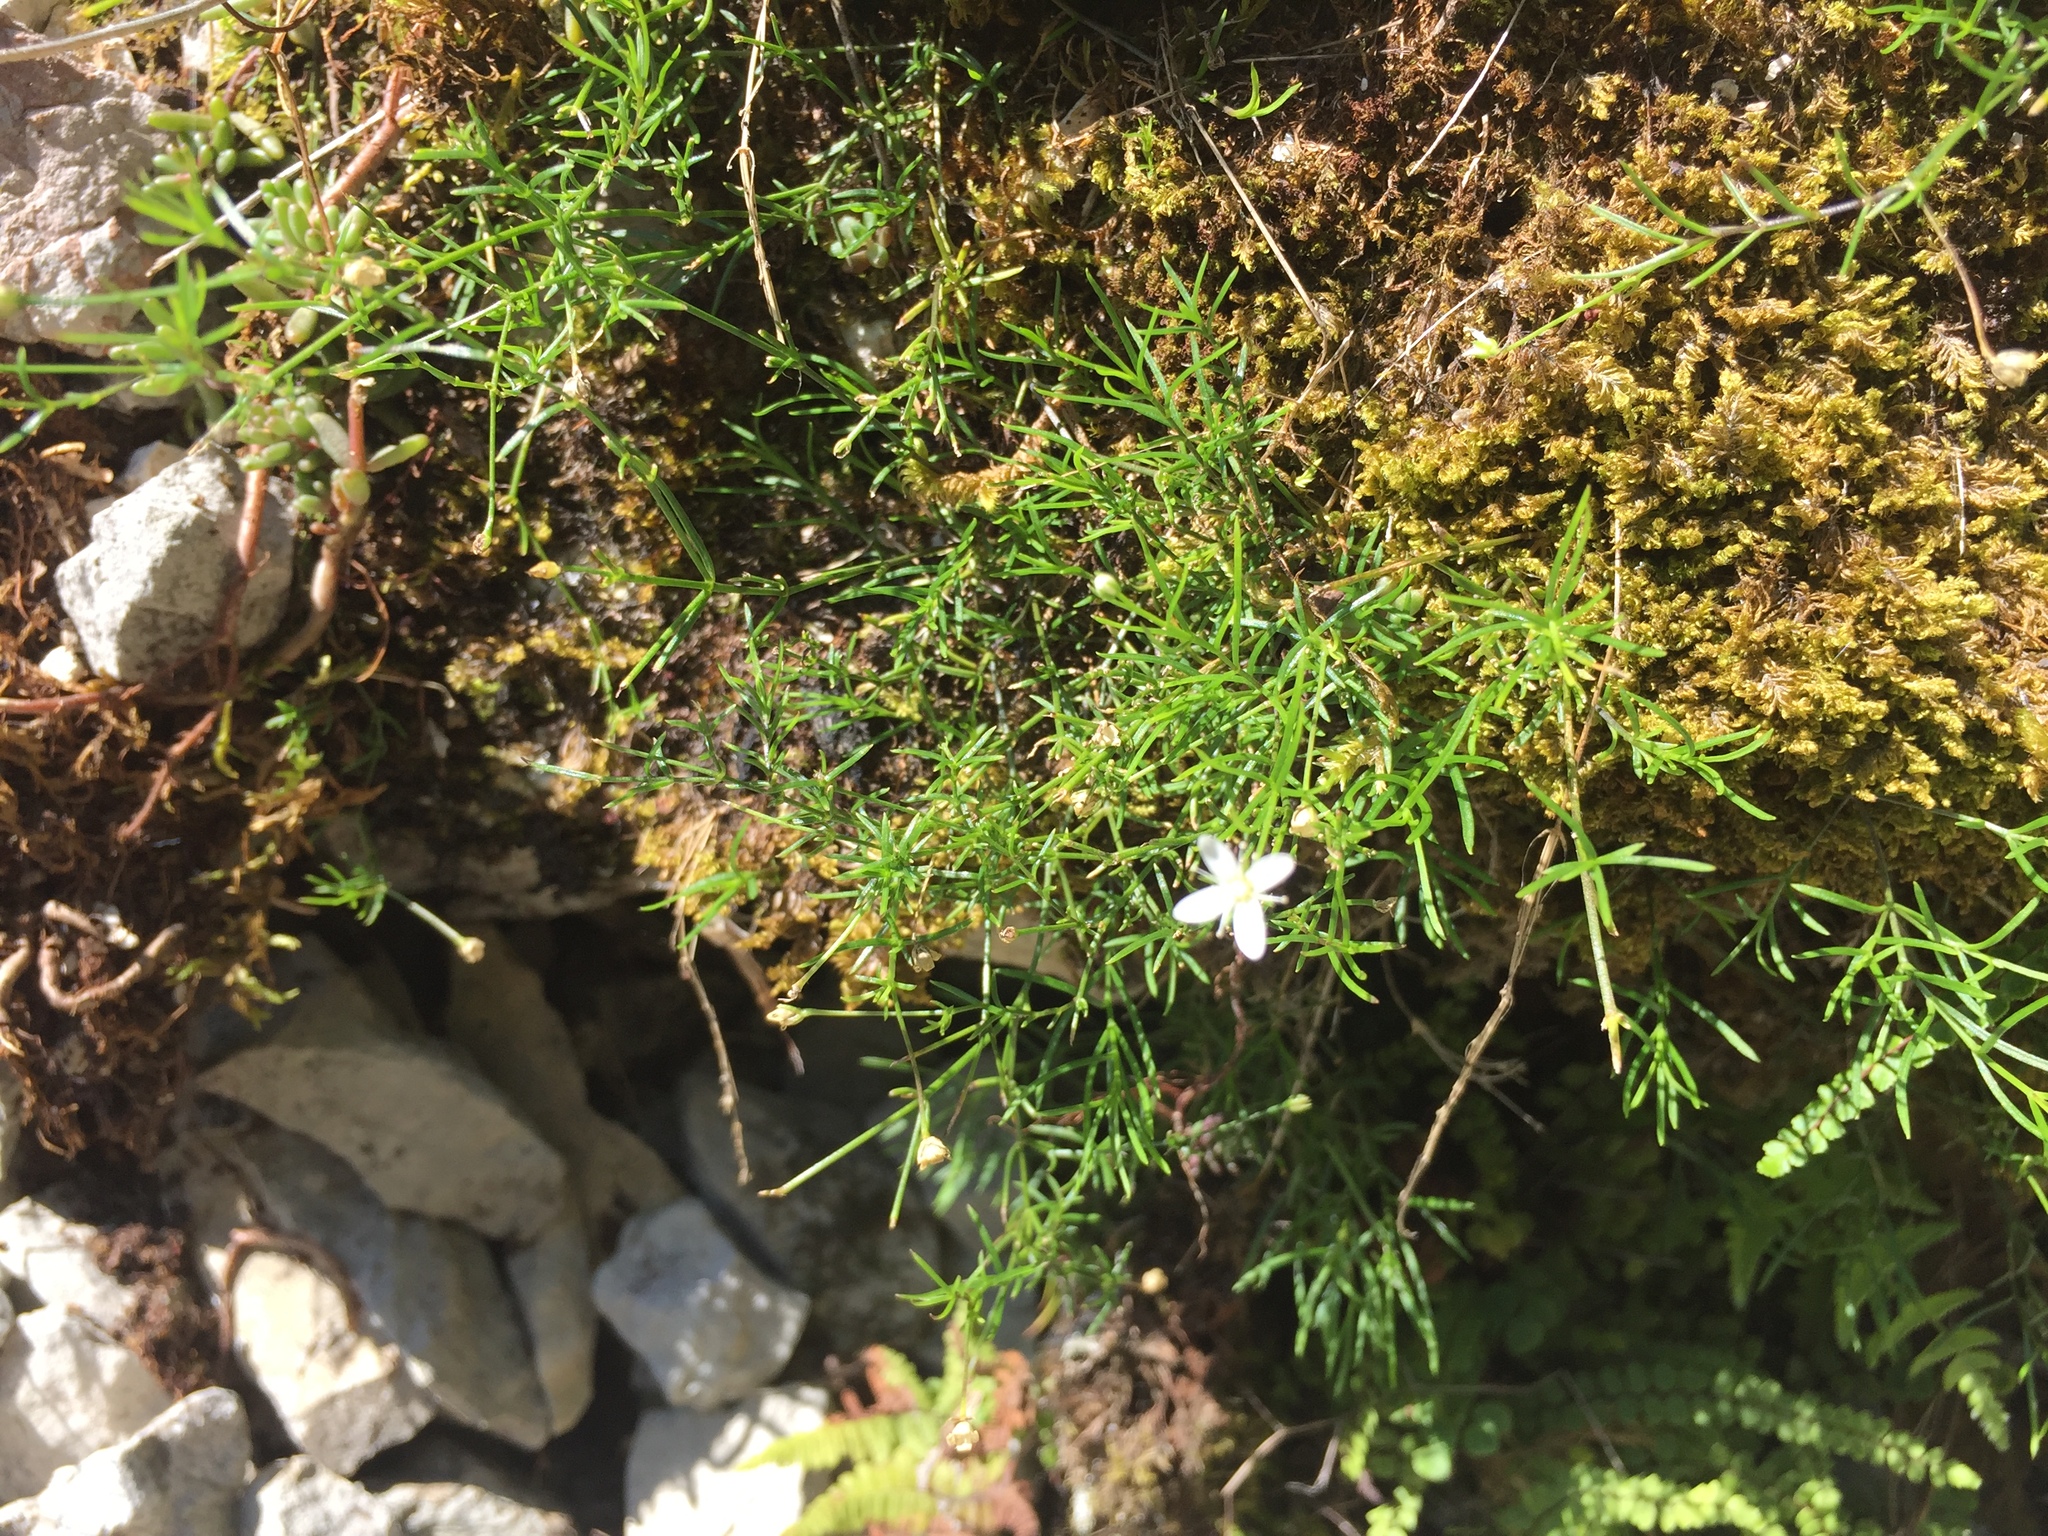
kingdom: Plantae
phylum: Tracheophyta
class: Magnoliopsida
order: Caryophyllales
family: Caryophyllaceae
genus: Moehringia
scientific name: Moehringia muscosa
